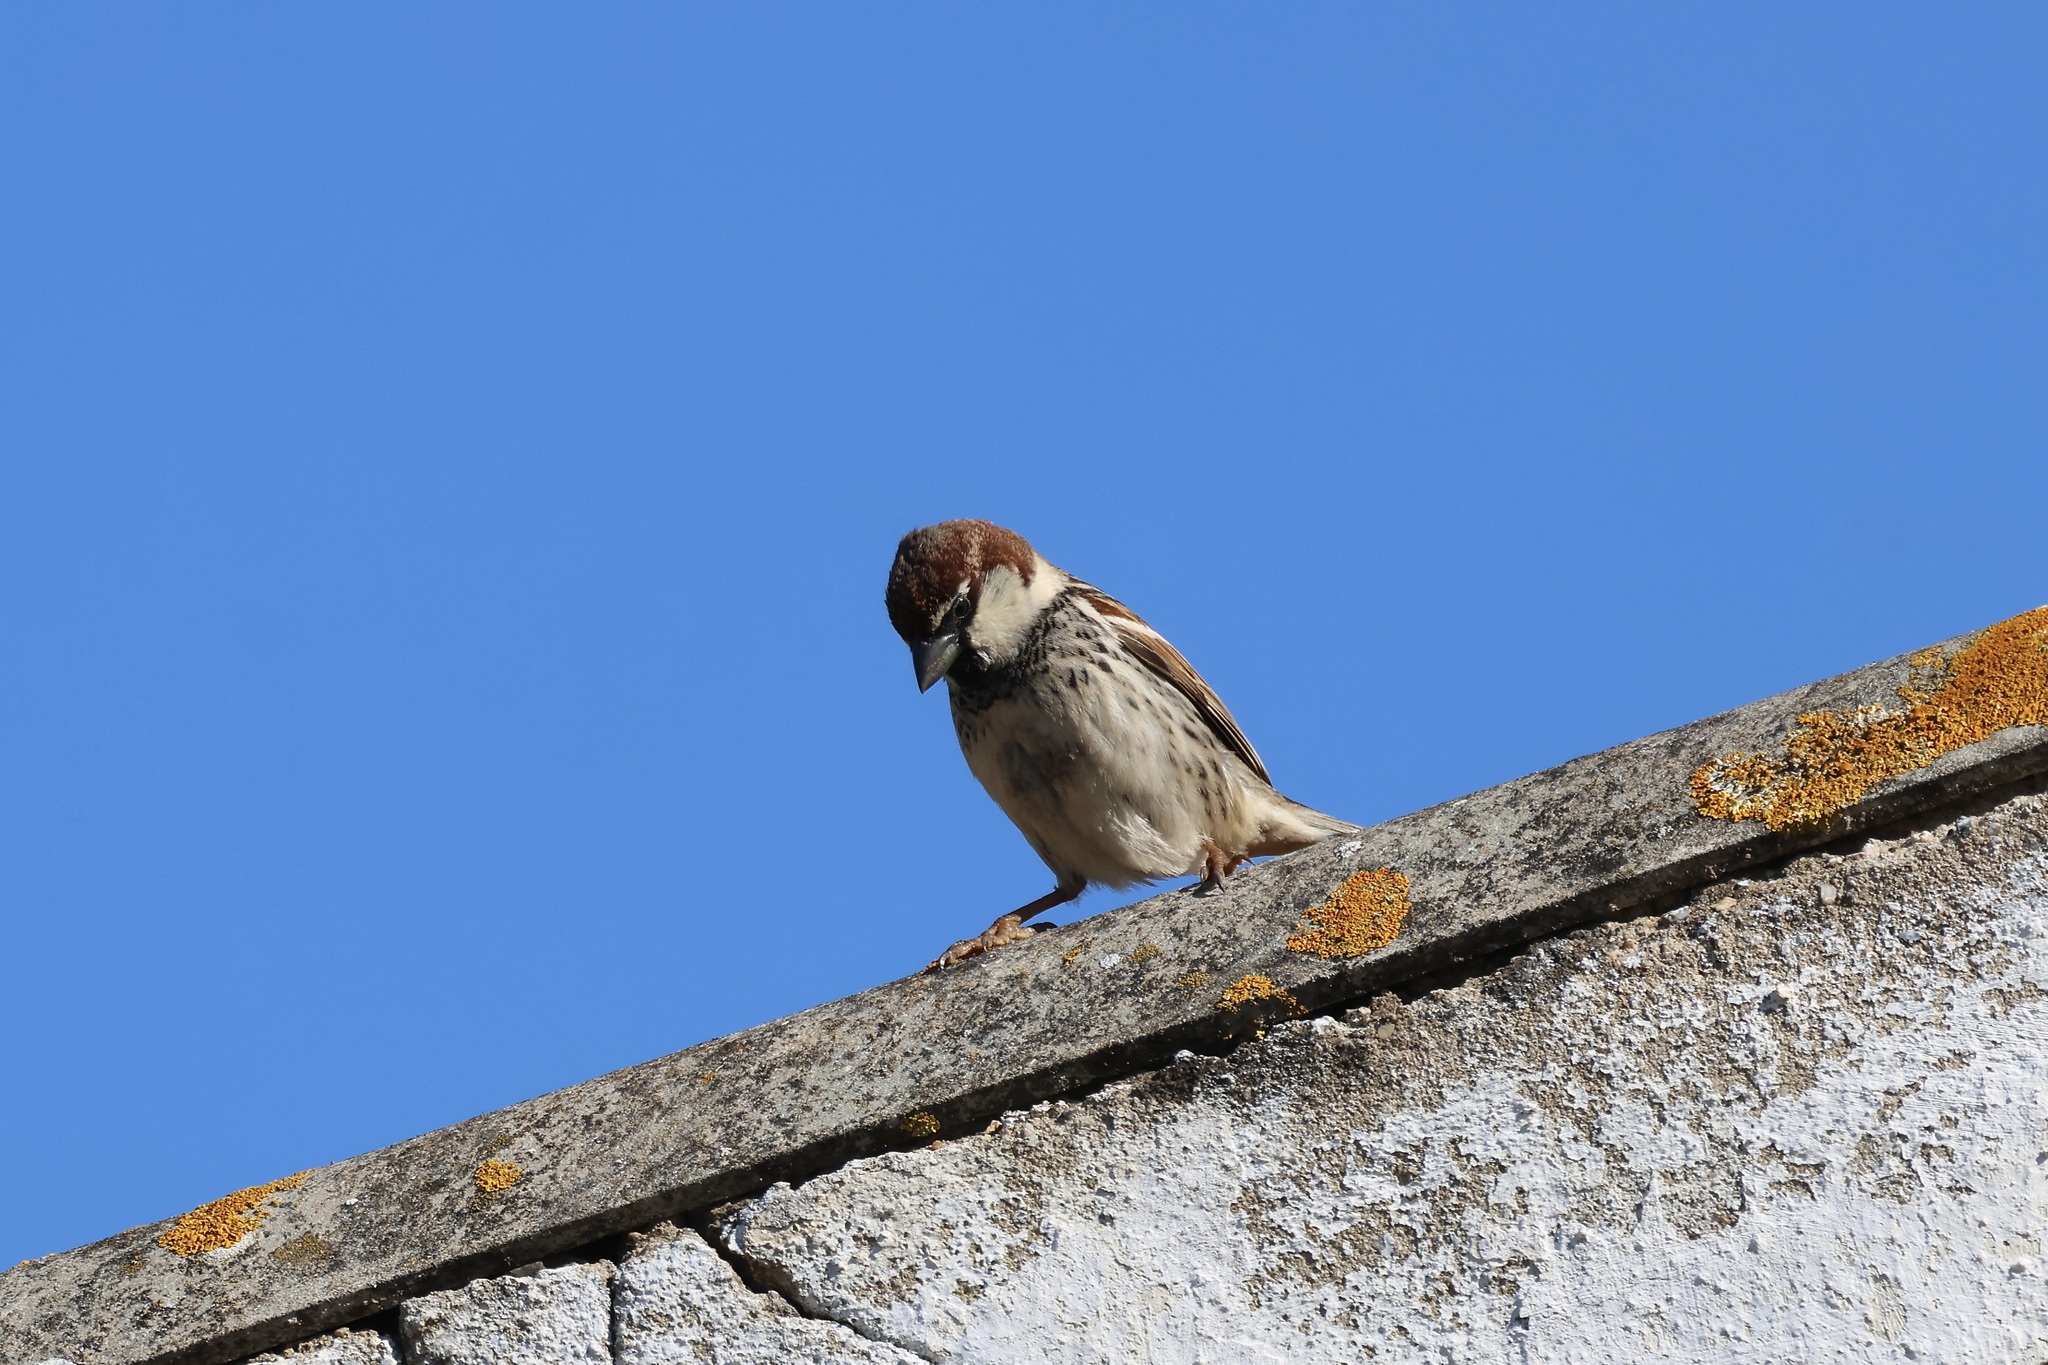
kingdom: Animalia
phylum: Chordata
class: Aves
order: Passeriformes
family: Passeridae
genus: Passer
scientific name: Passer hispaniolensis
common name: Spanish sparrow
